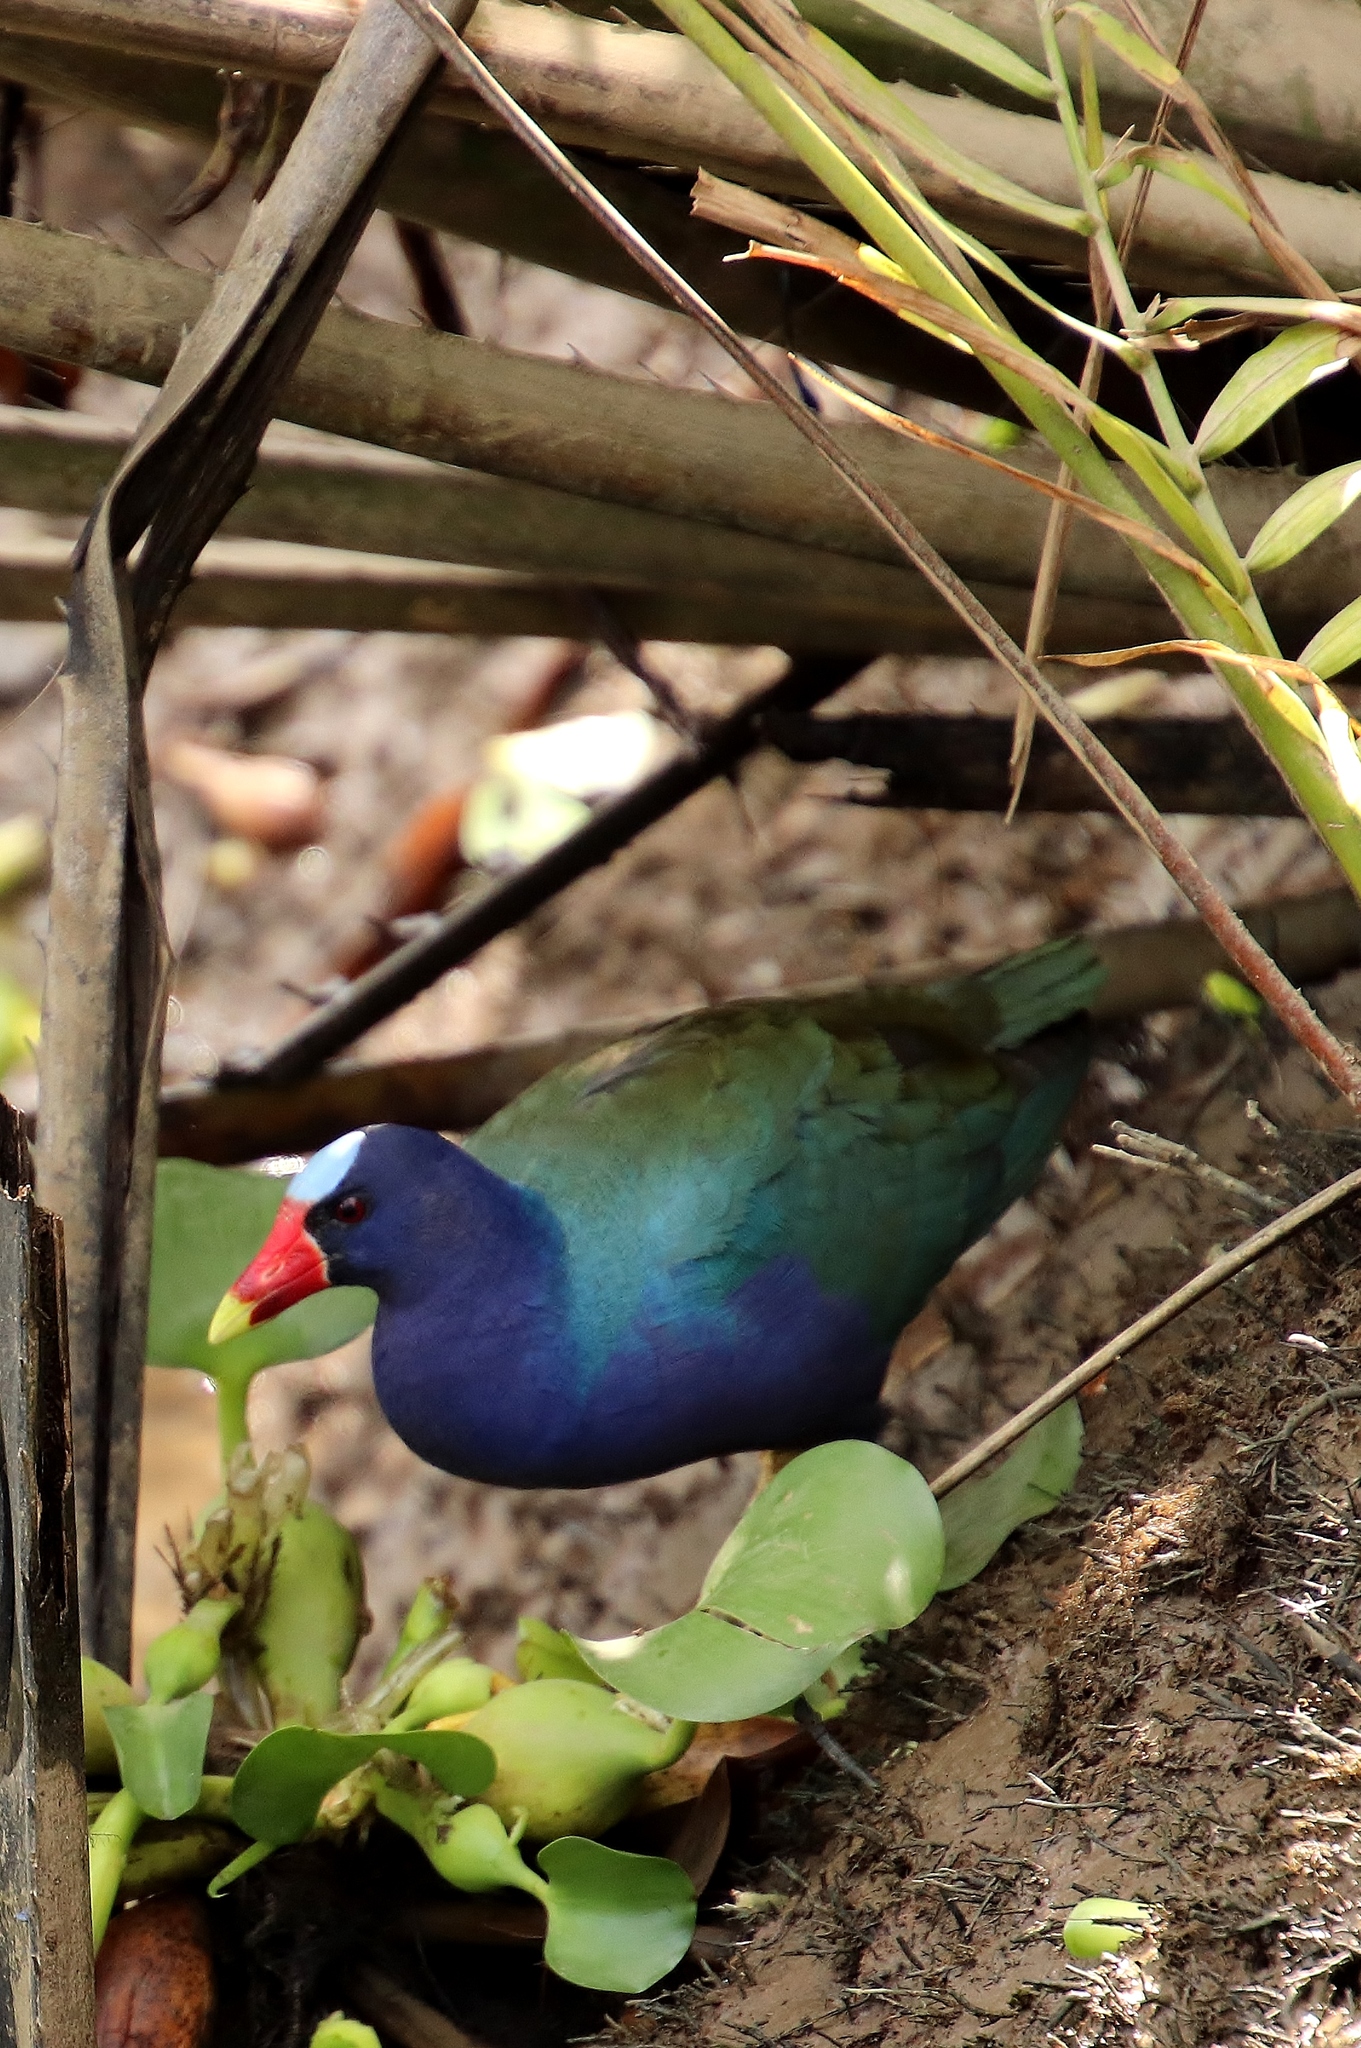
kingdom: Animalia
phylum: Chordata
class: Aves
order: Gruiformes
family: Rallidae
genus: Porphyrio
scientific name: Porphyrio martinica
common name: Purple gallinule
